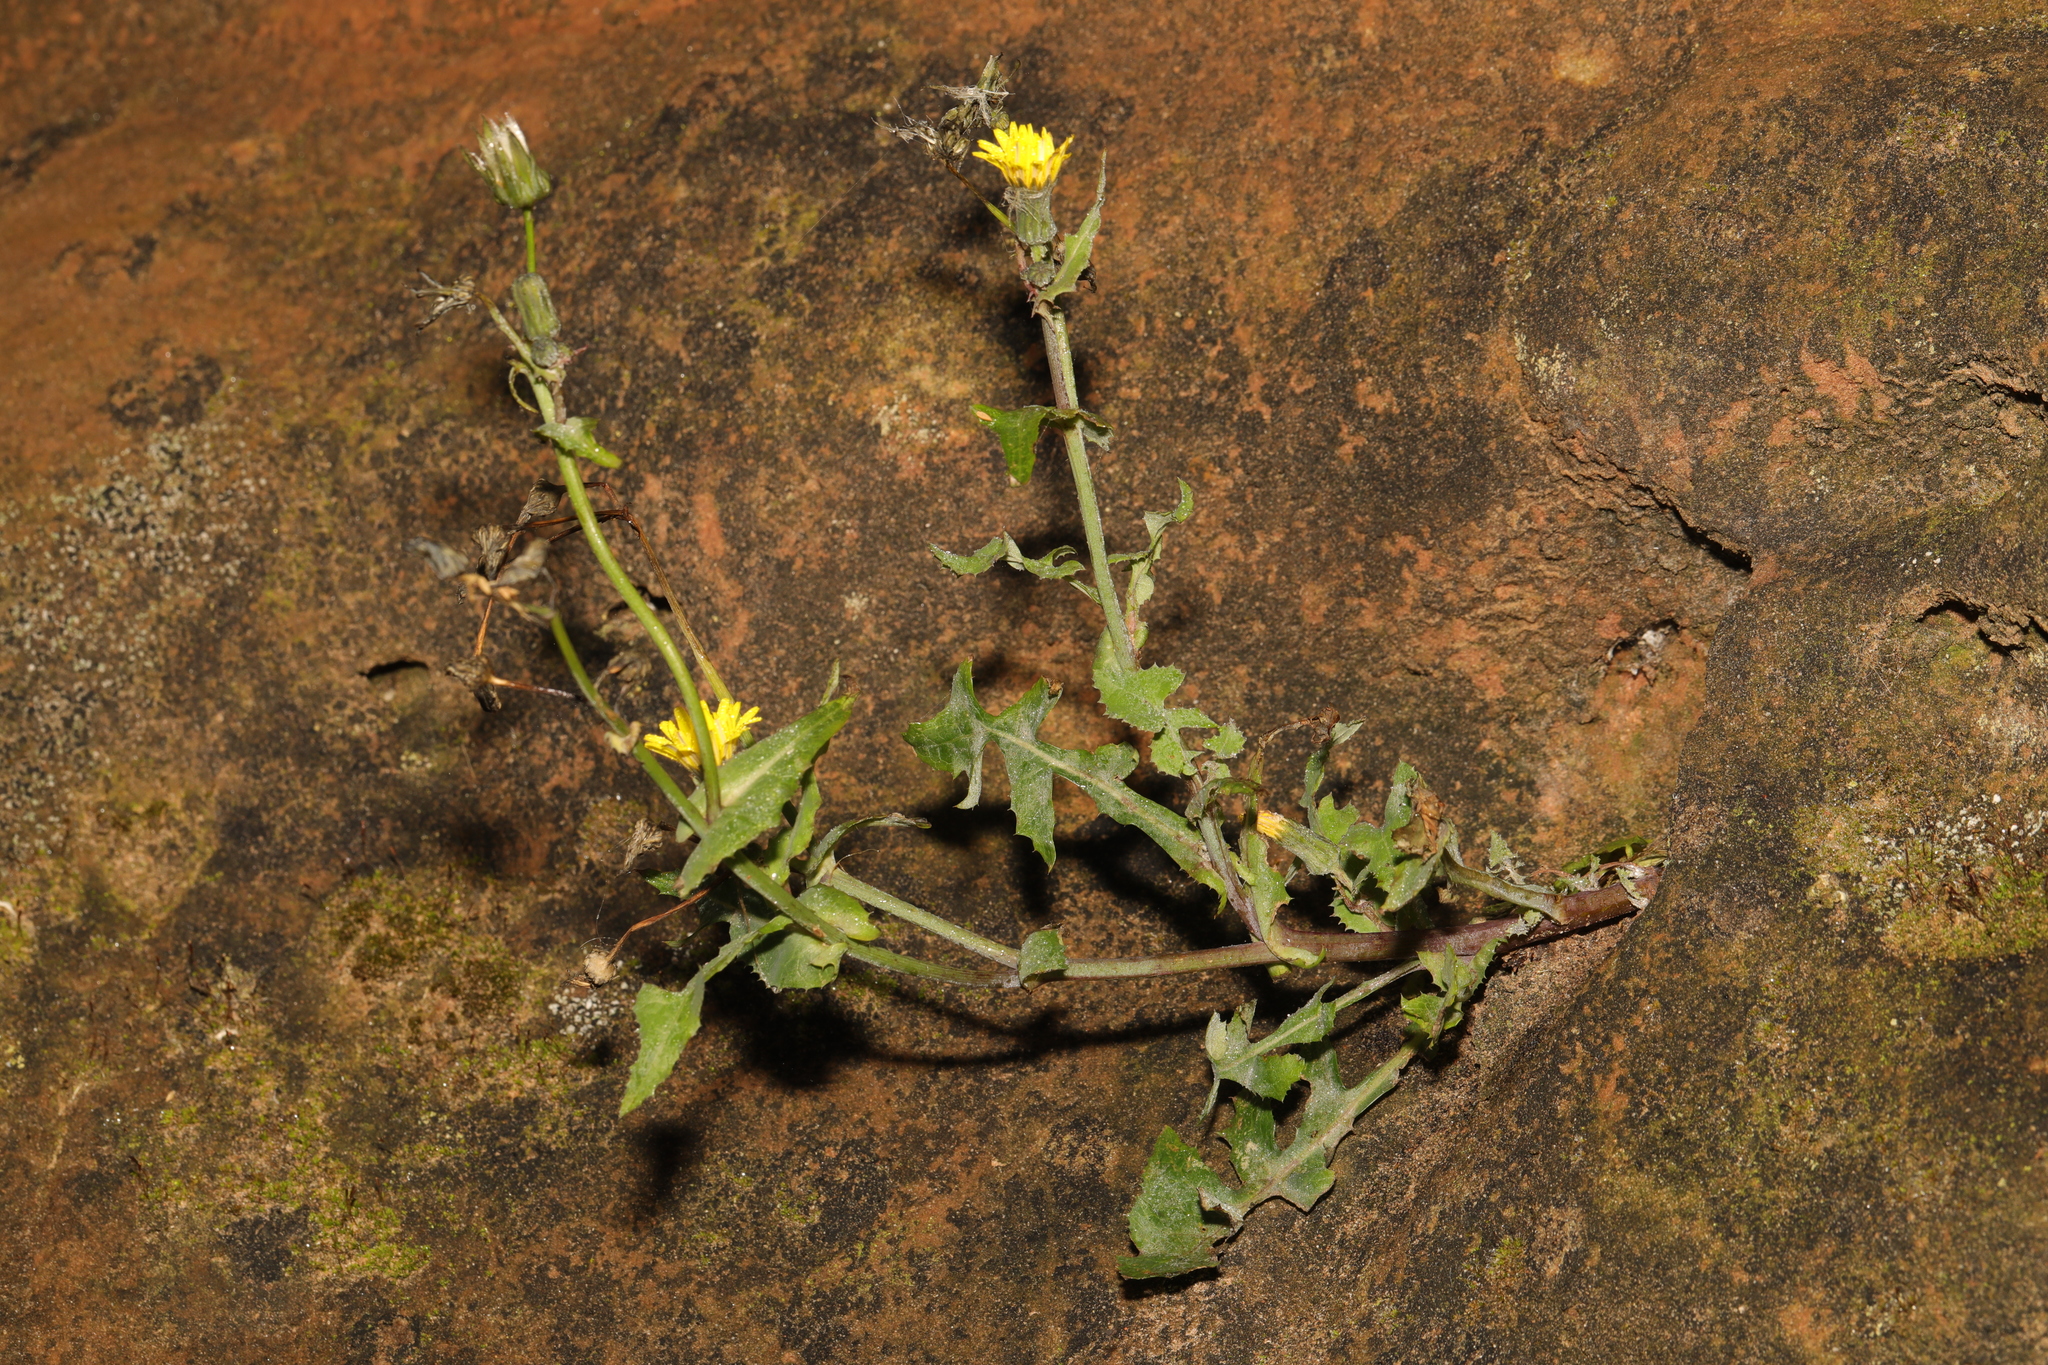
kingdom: Plantae
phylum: Tracheophyta
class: Magnoliopsida
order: Asterales
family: Asteraceae
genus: Sonchus
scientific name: Sonchus oleraceus
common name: Common sowthistle
